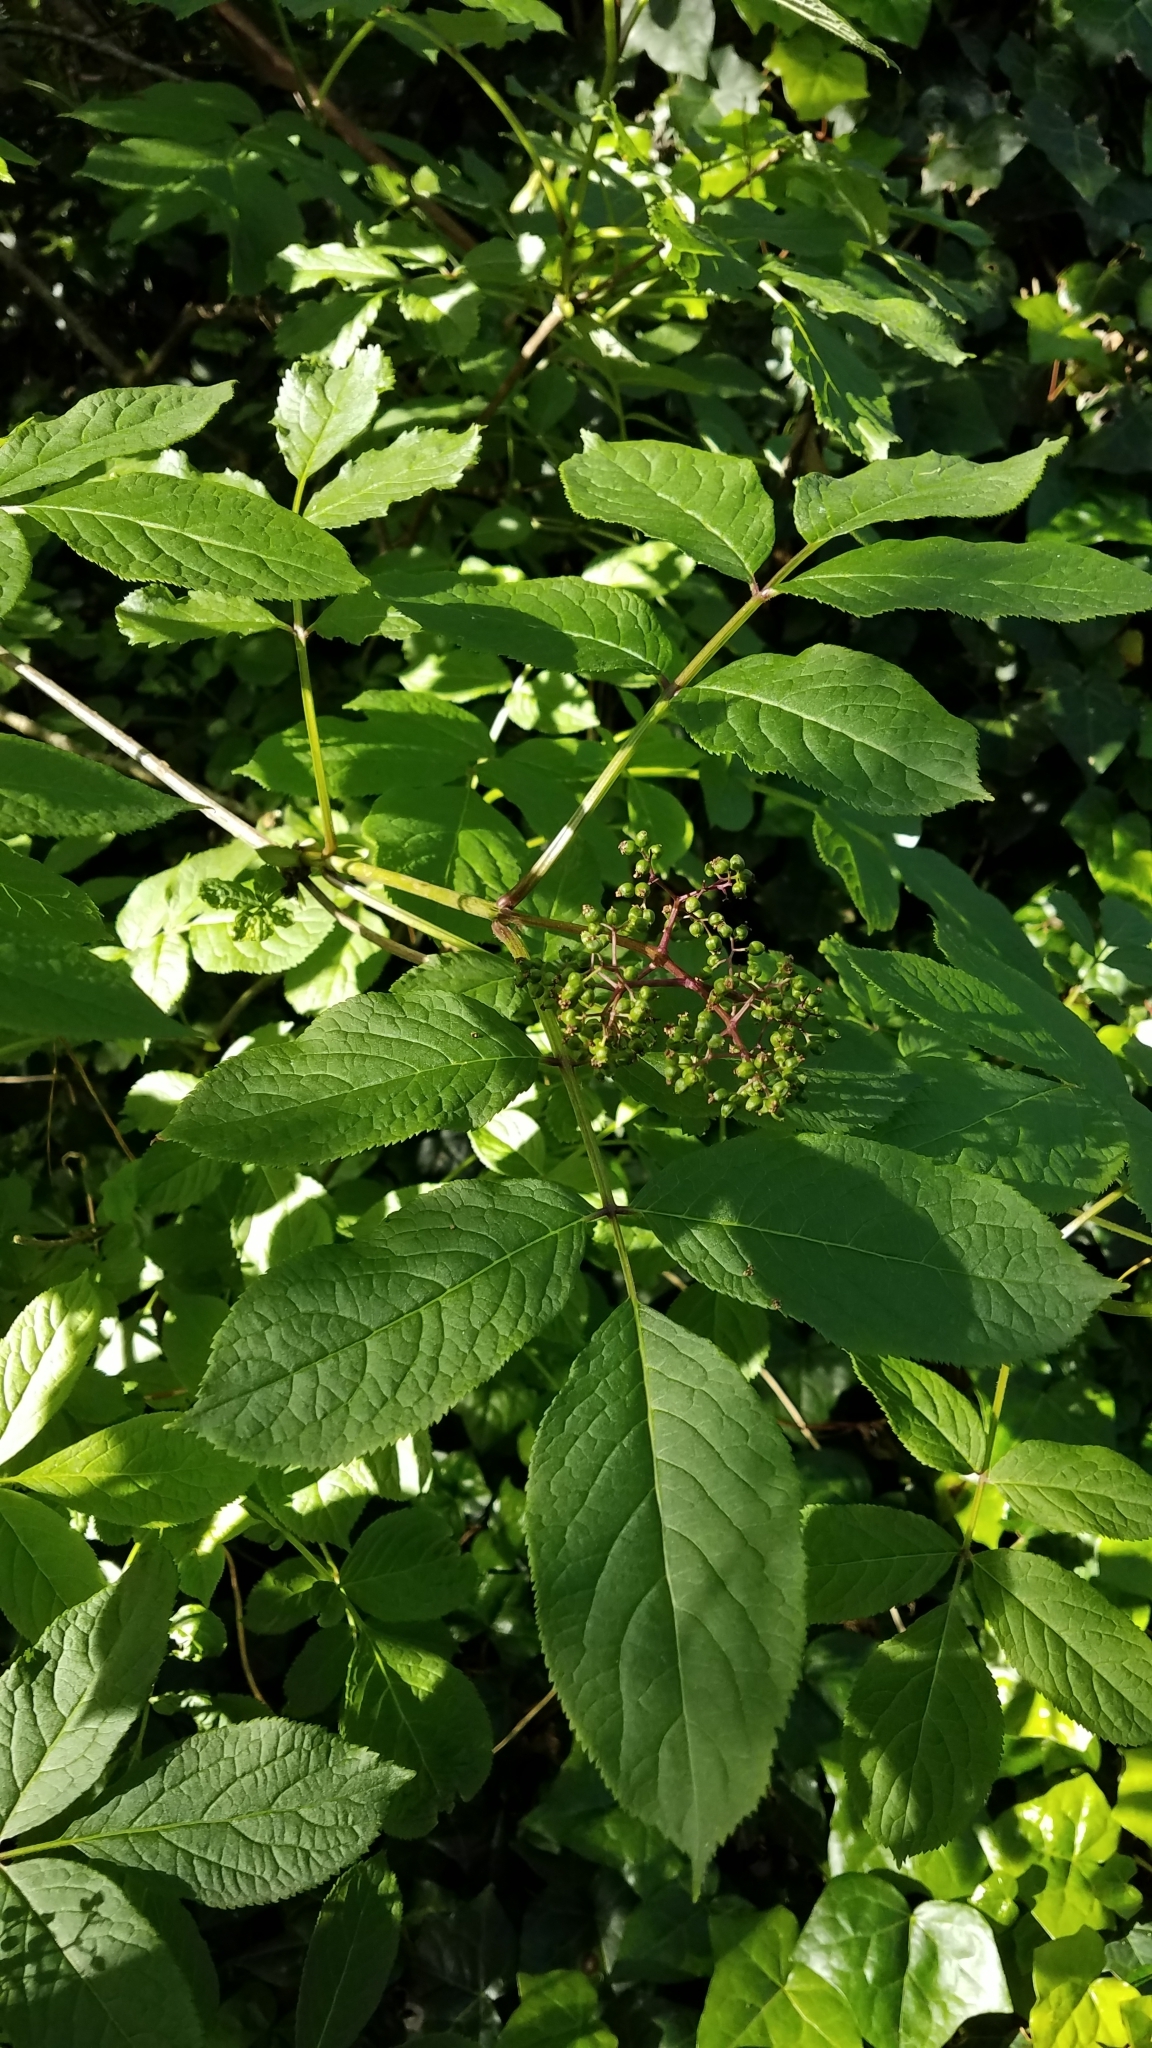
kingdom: Plantae
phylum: Tracheophyta
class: Magnoliopsida
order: Dipsacales
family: Viburnaceae
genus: Sambucus
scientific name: Sambucus racemosa
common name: Red-berried elder
